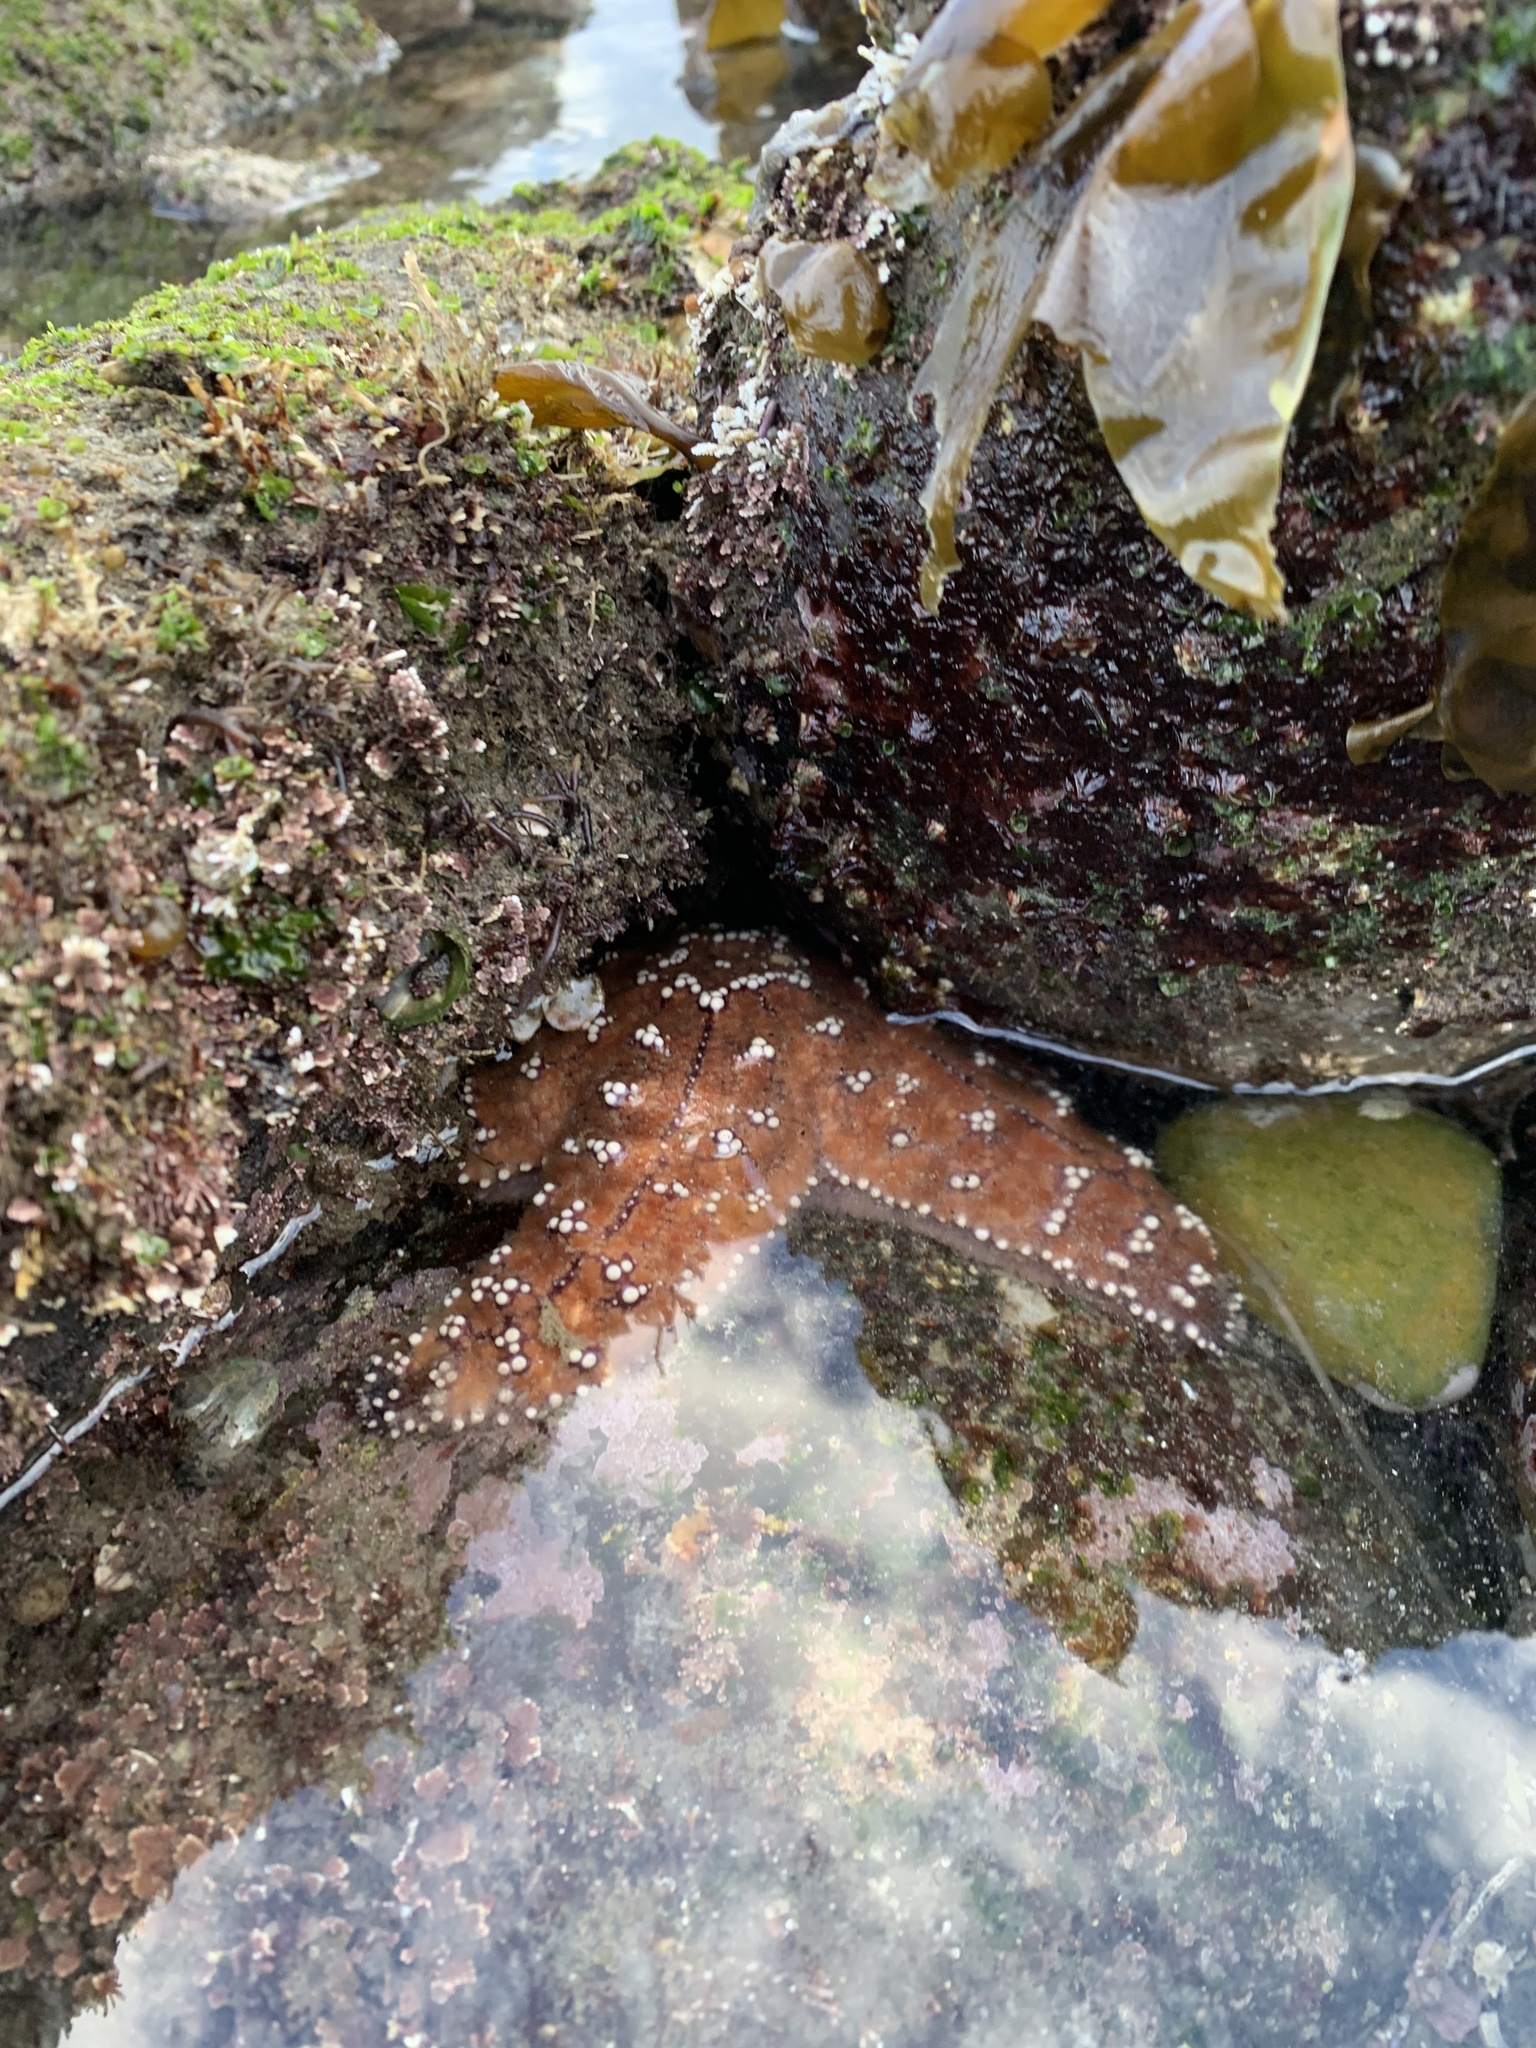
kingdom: Animalia
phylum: Echinodermata
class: Asteroidea
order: Forcipulatida
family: Asteriidae
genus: Pisaster
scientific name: Pisaster ochraceus
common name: Ochre stars
